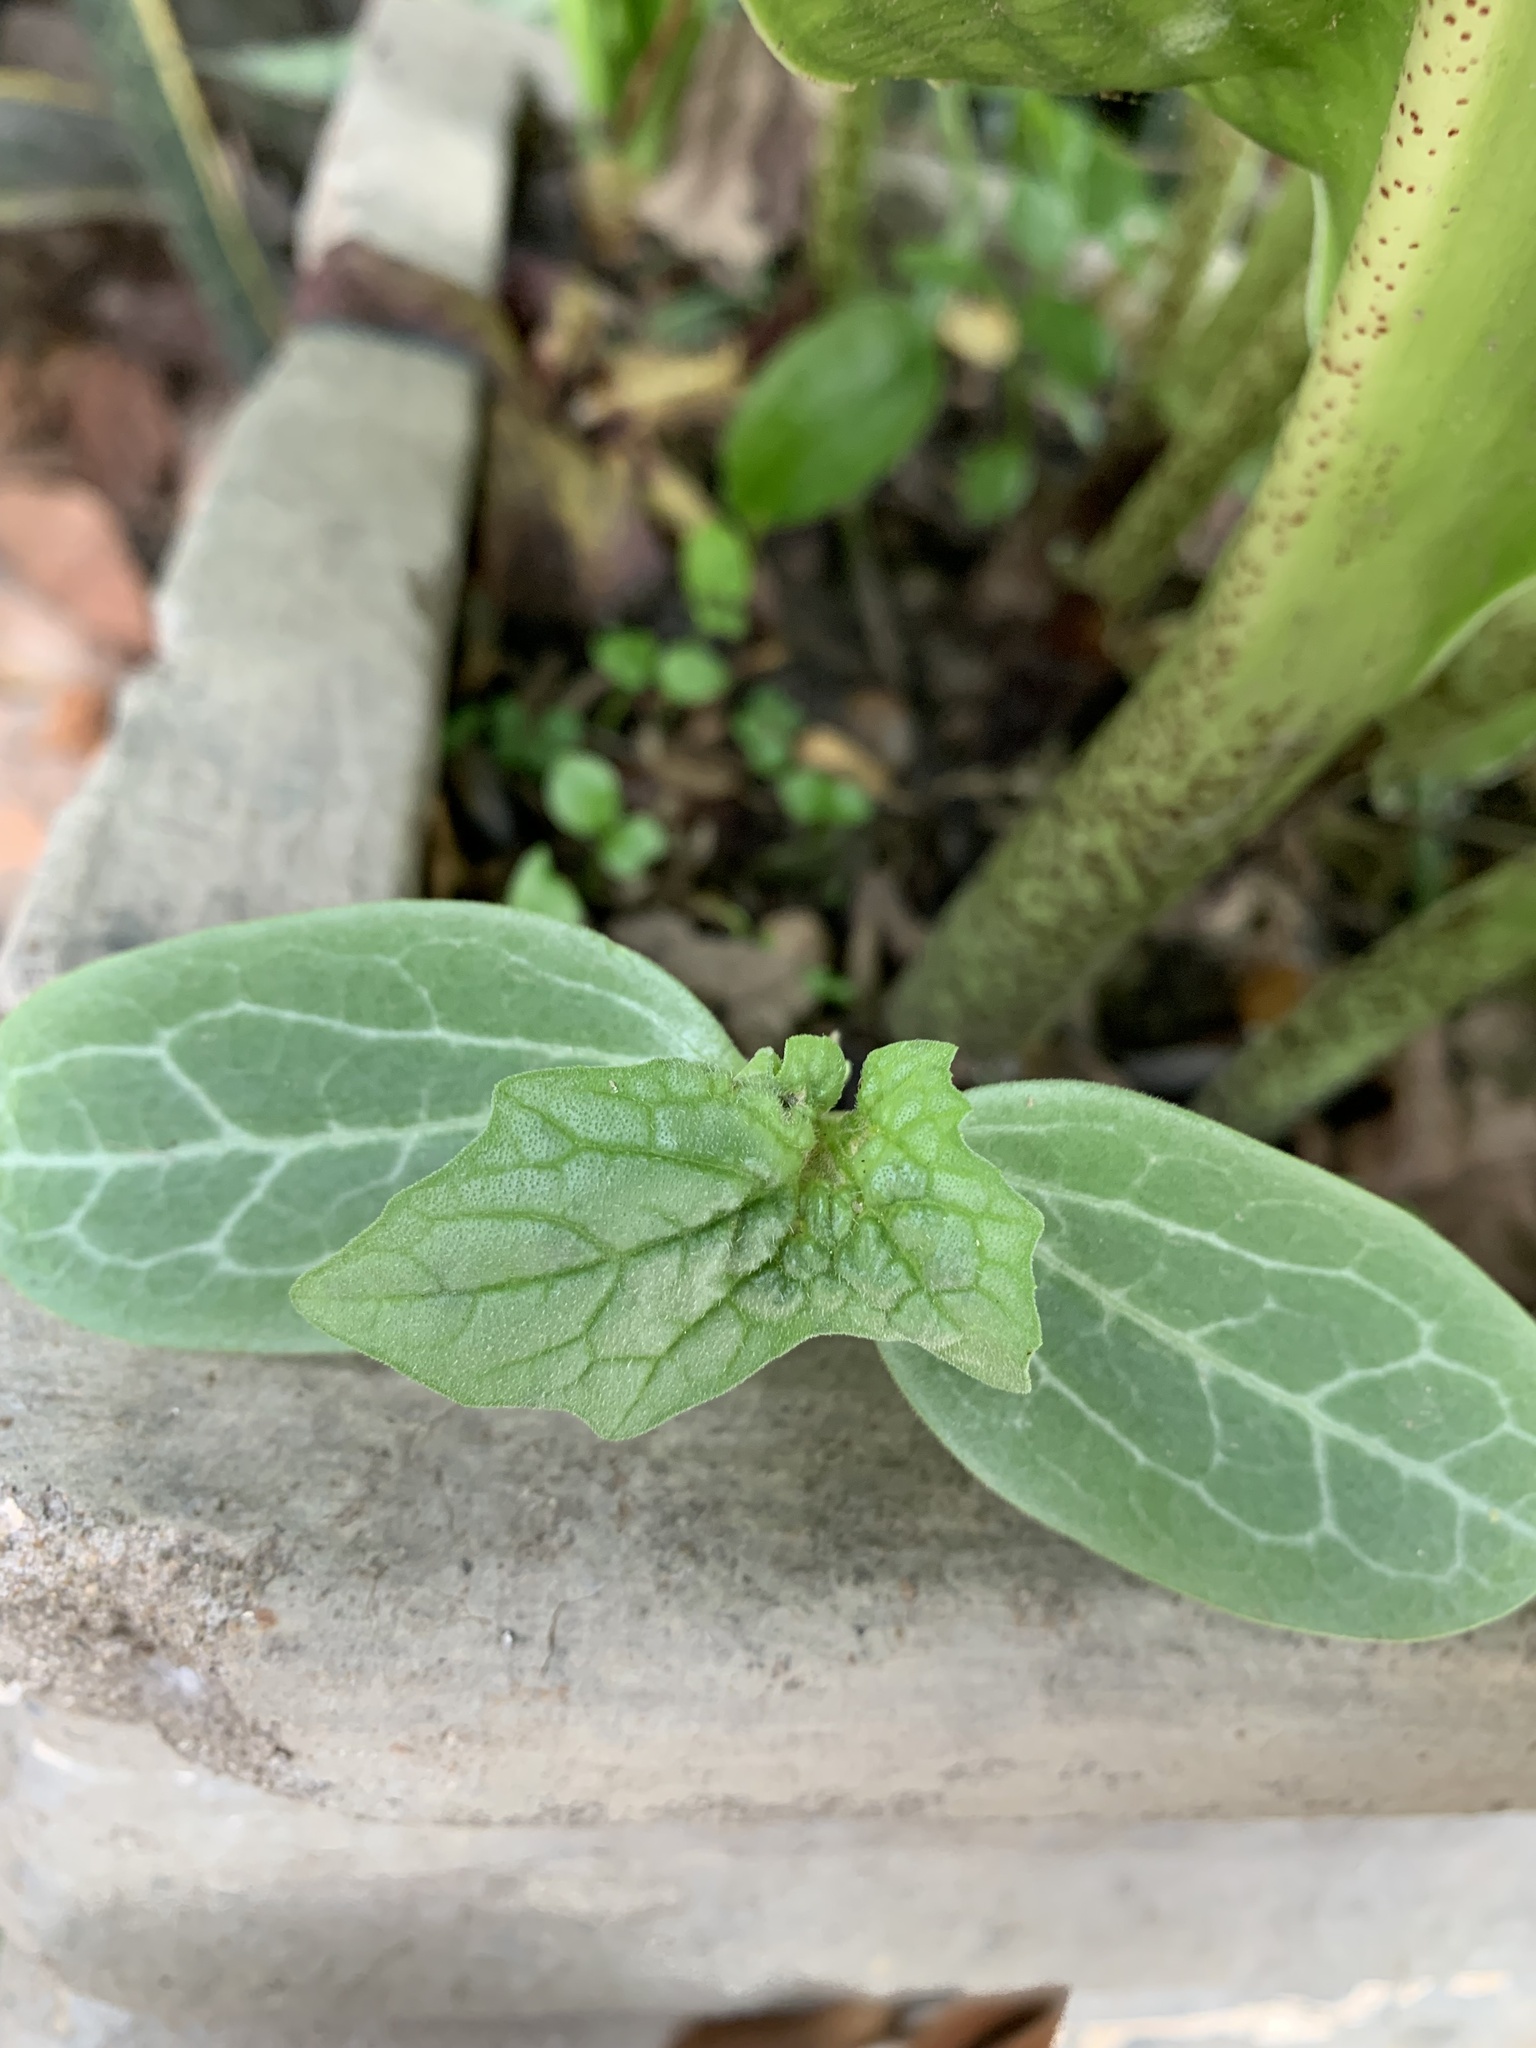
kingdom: Plantae
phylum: Tracheophyta
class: Magnoliopsida
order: Cucurbitales
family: Cucurbitaceae
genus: Luffa
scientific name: Luffa aegyptiaca
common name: Sponge gourd
